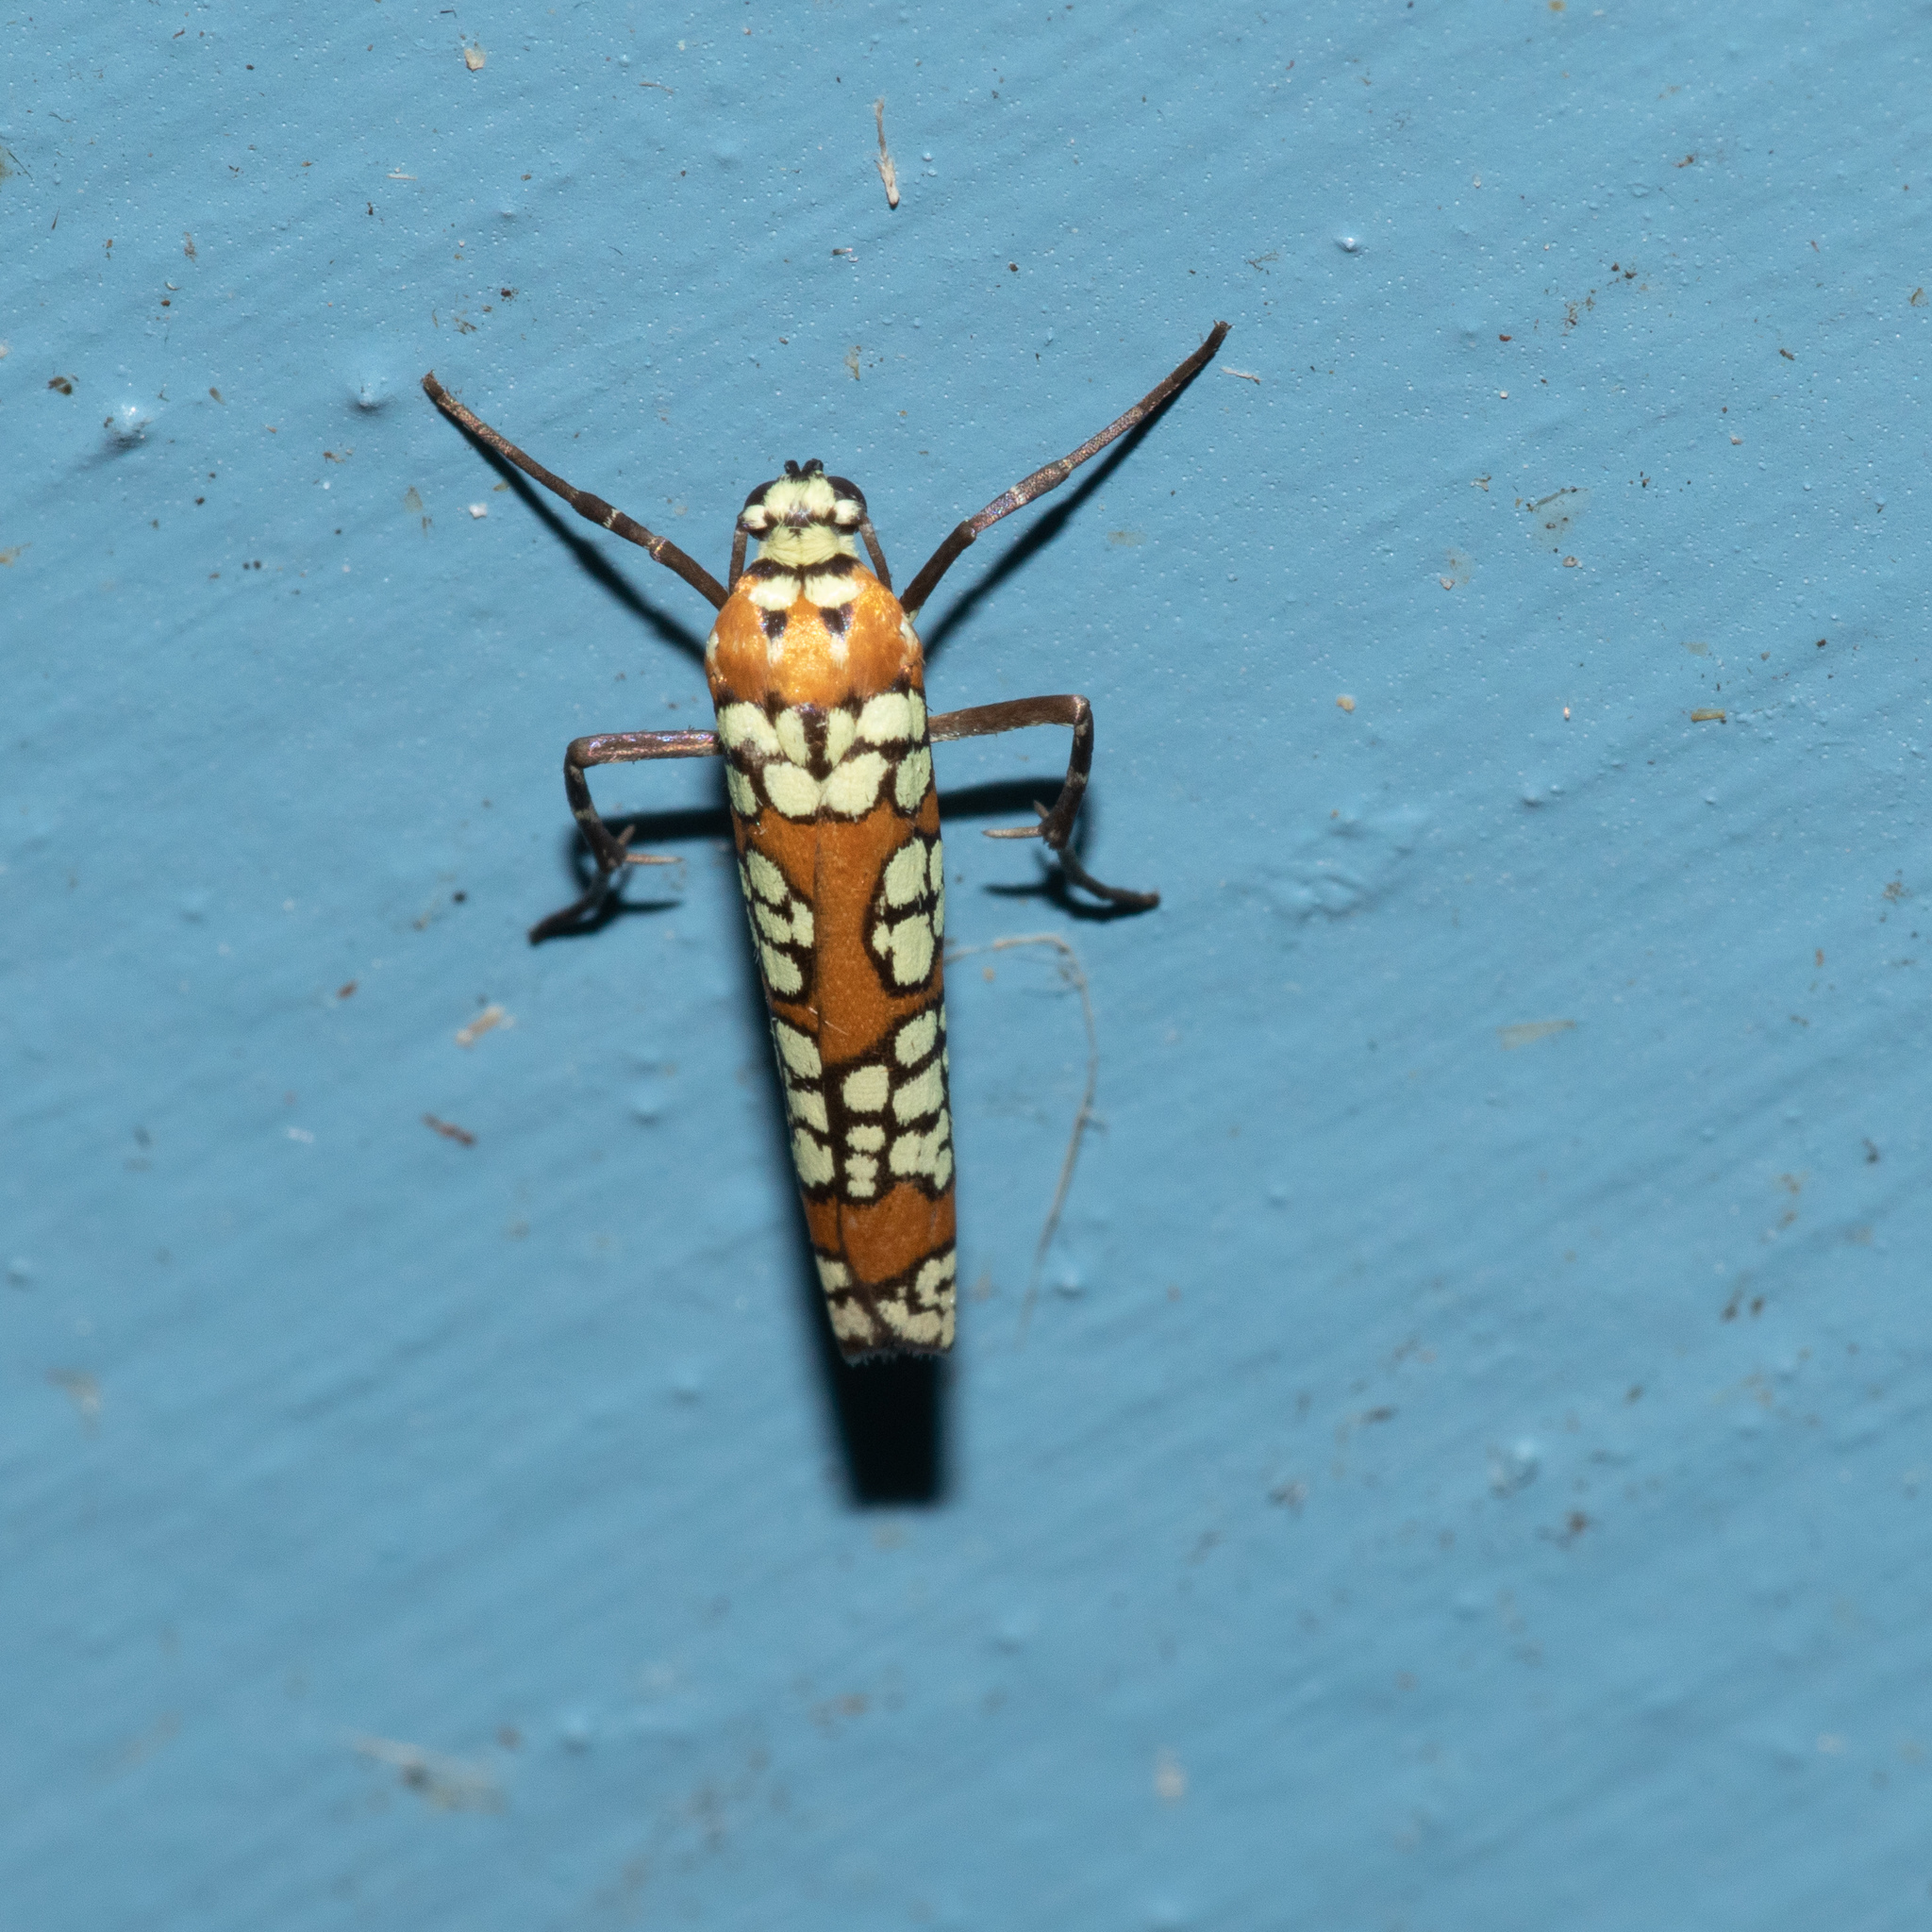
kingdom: Animalia
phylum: Arthropoda
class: Insecta
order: Lepidoptera
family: Attevidae
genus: Atteva
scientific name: Atteva punctella
